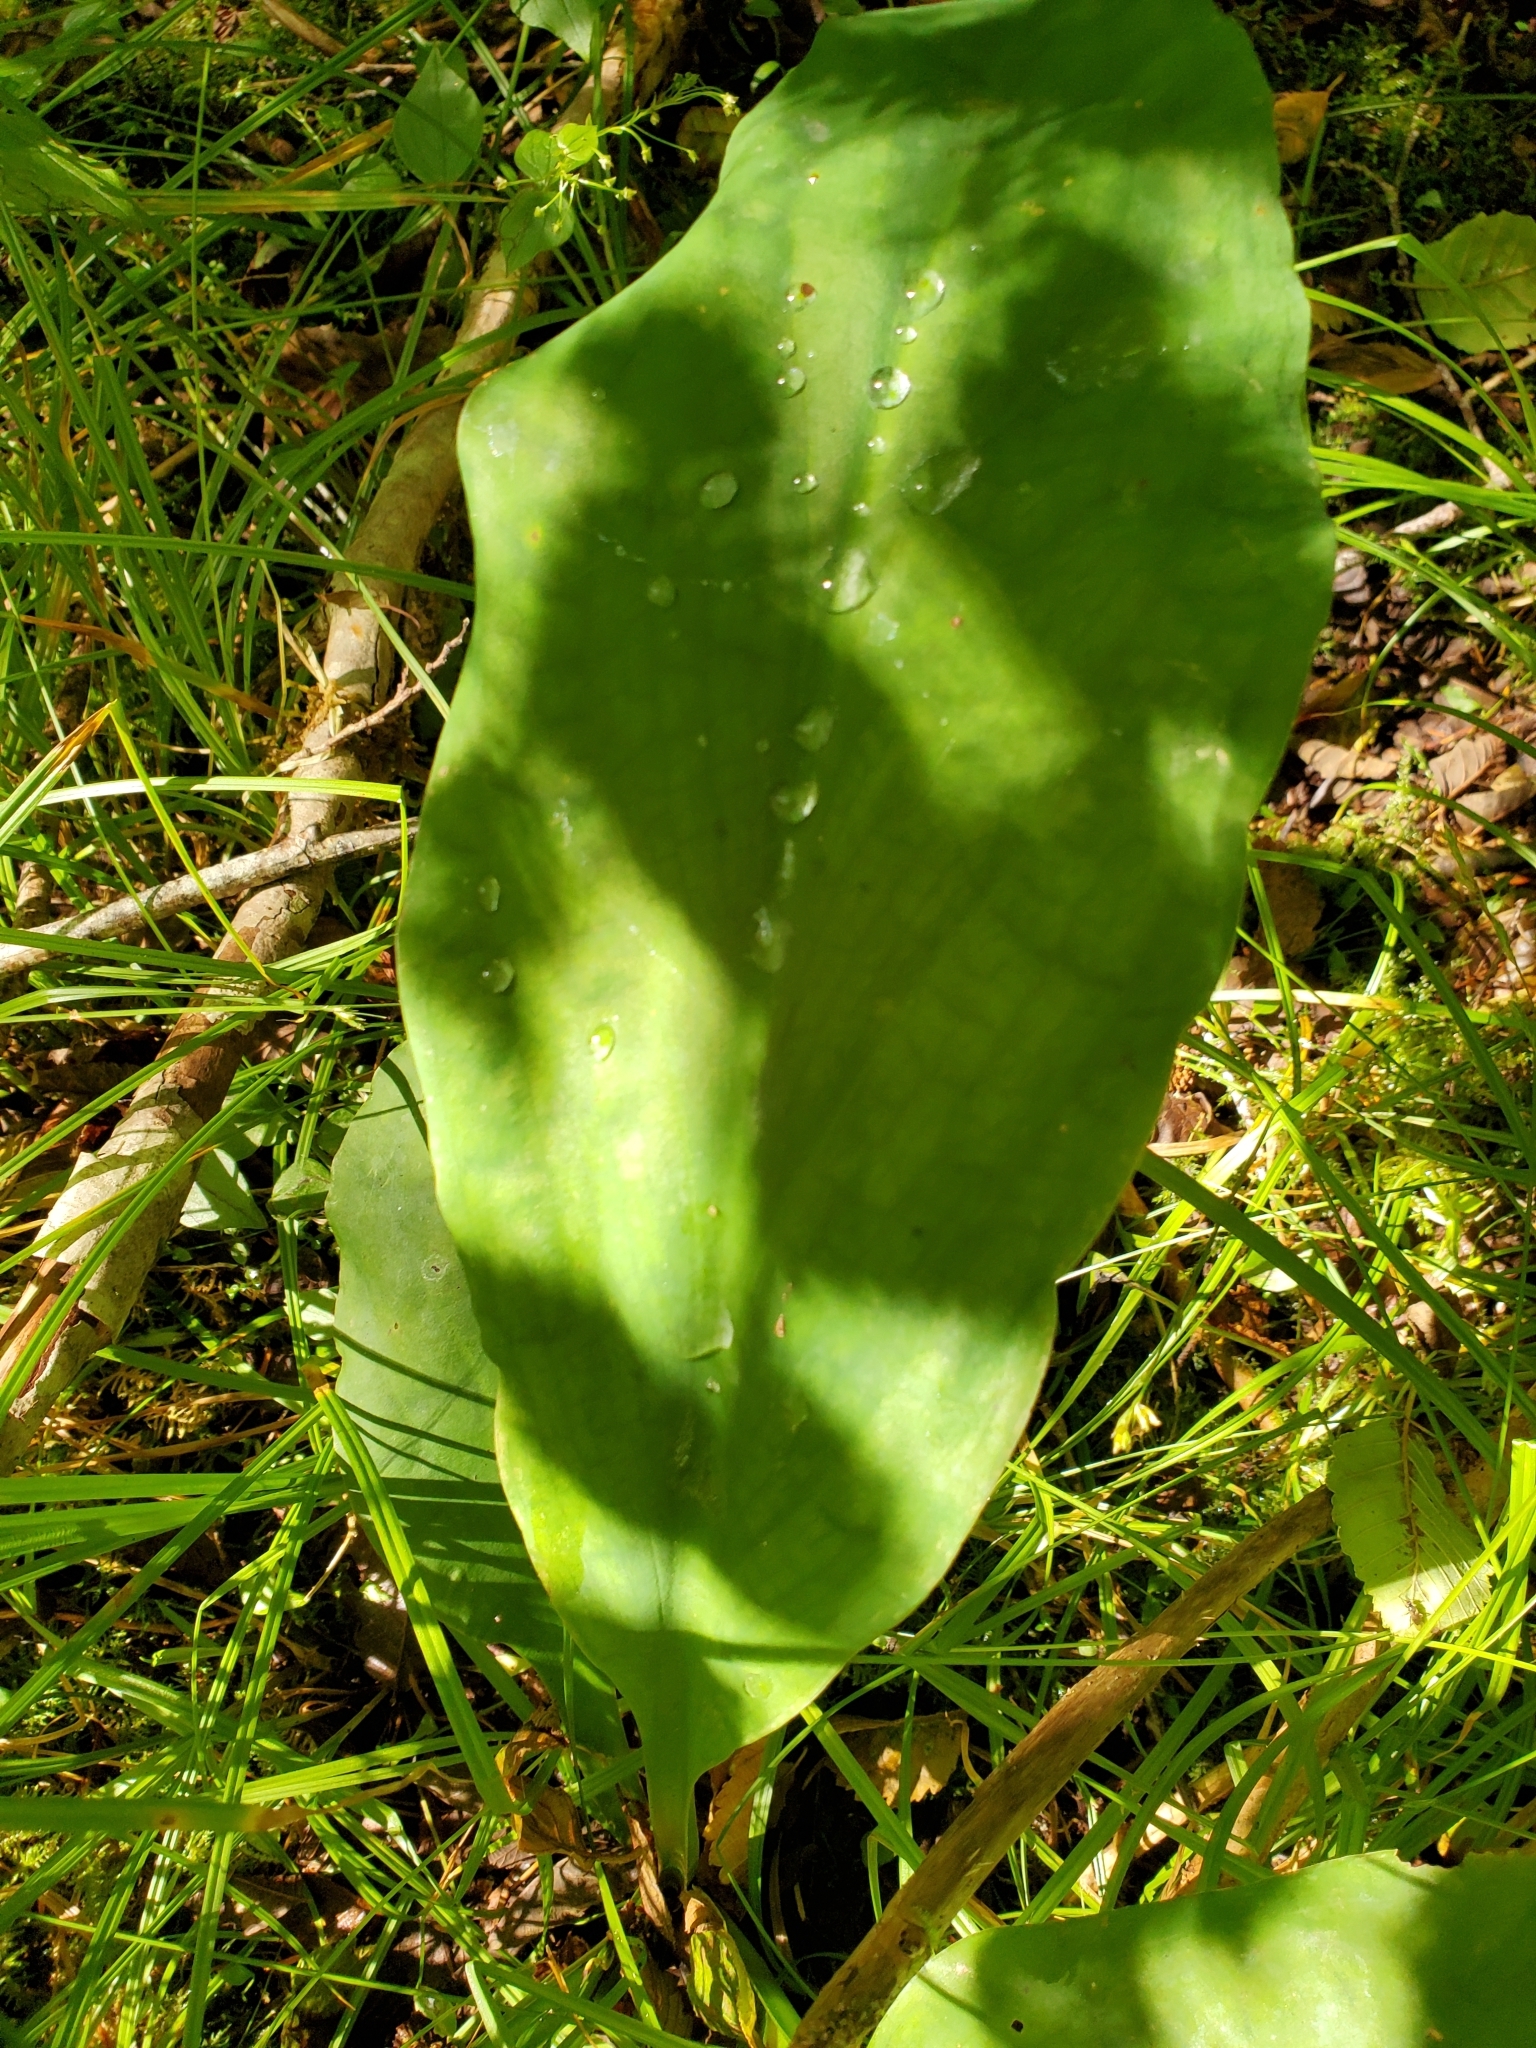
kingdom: Plantae
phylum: Tracheophyta
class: Liliopsida
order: Alismatales
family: Araceae
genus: Lysichiton
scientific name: Lysichiton americanus
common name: American skunk cabbage
